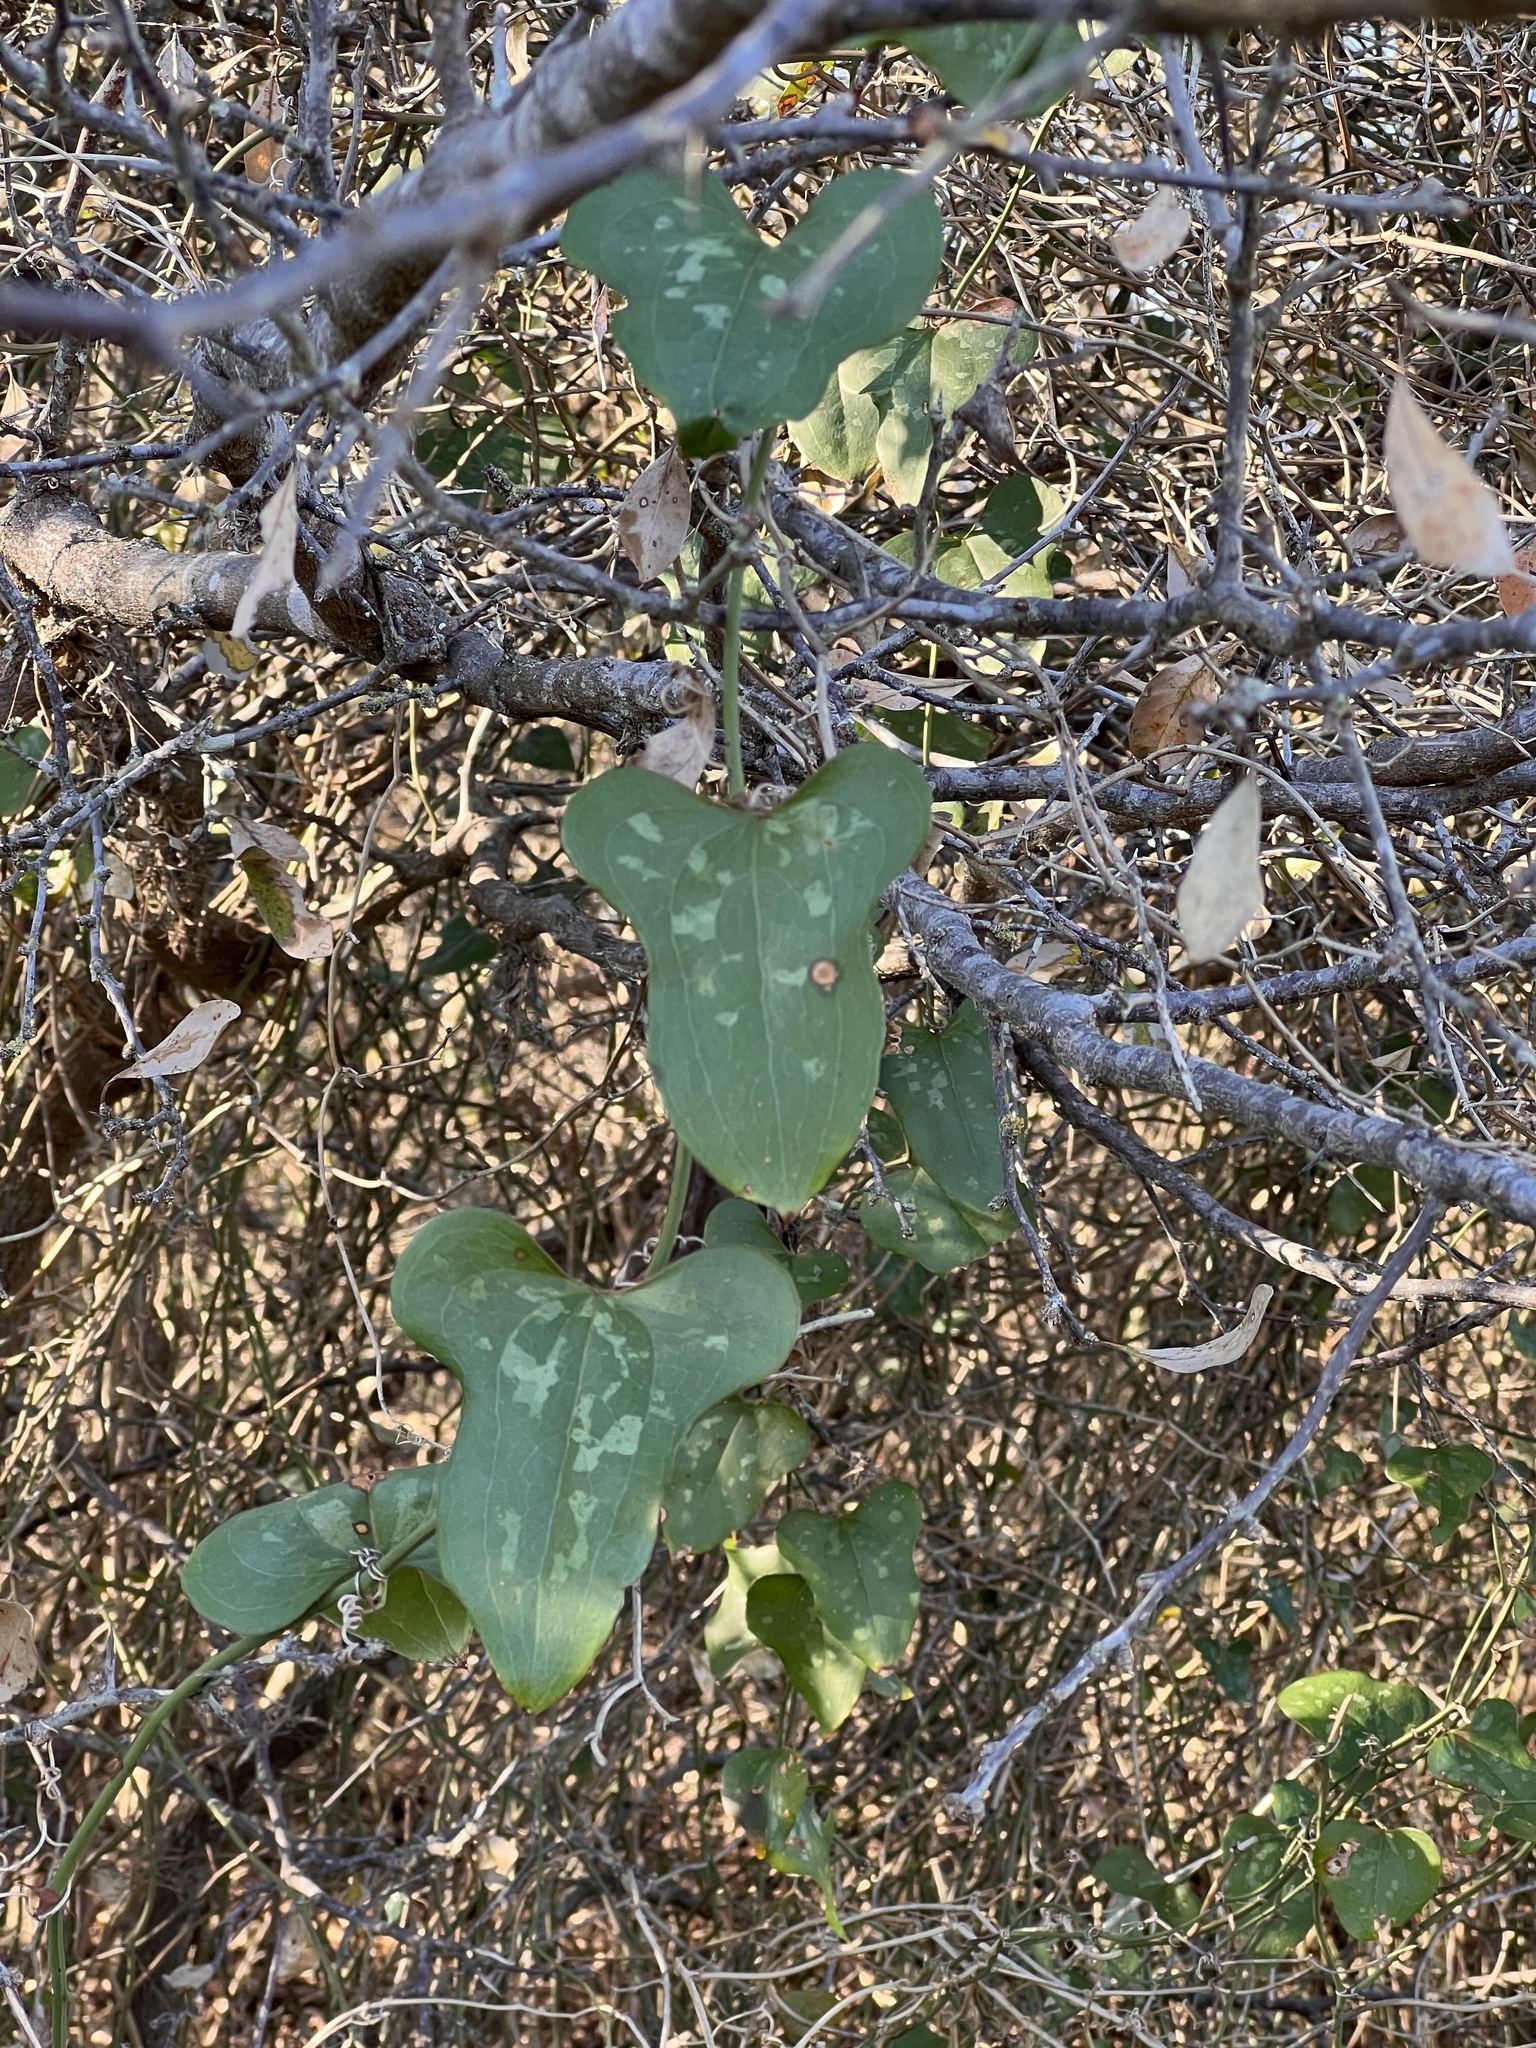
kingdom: Plantae
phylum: Tracheophyta
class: Liliopsida
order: Liliales
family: Smilacaceae
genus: Smilax
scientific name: Smilax bona-nox
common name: Catbrier
